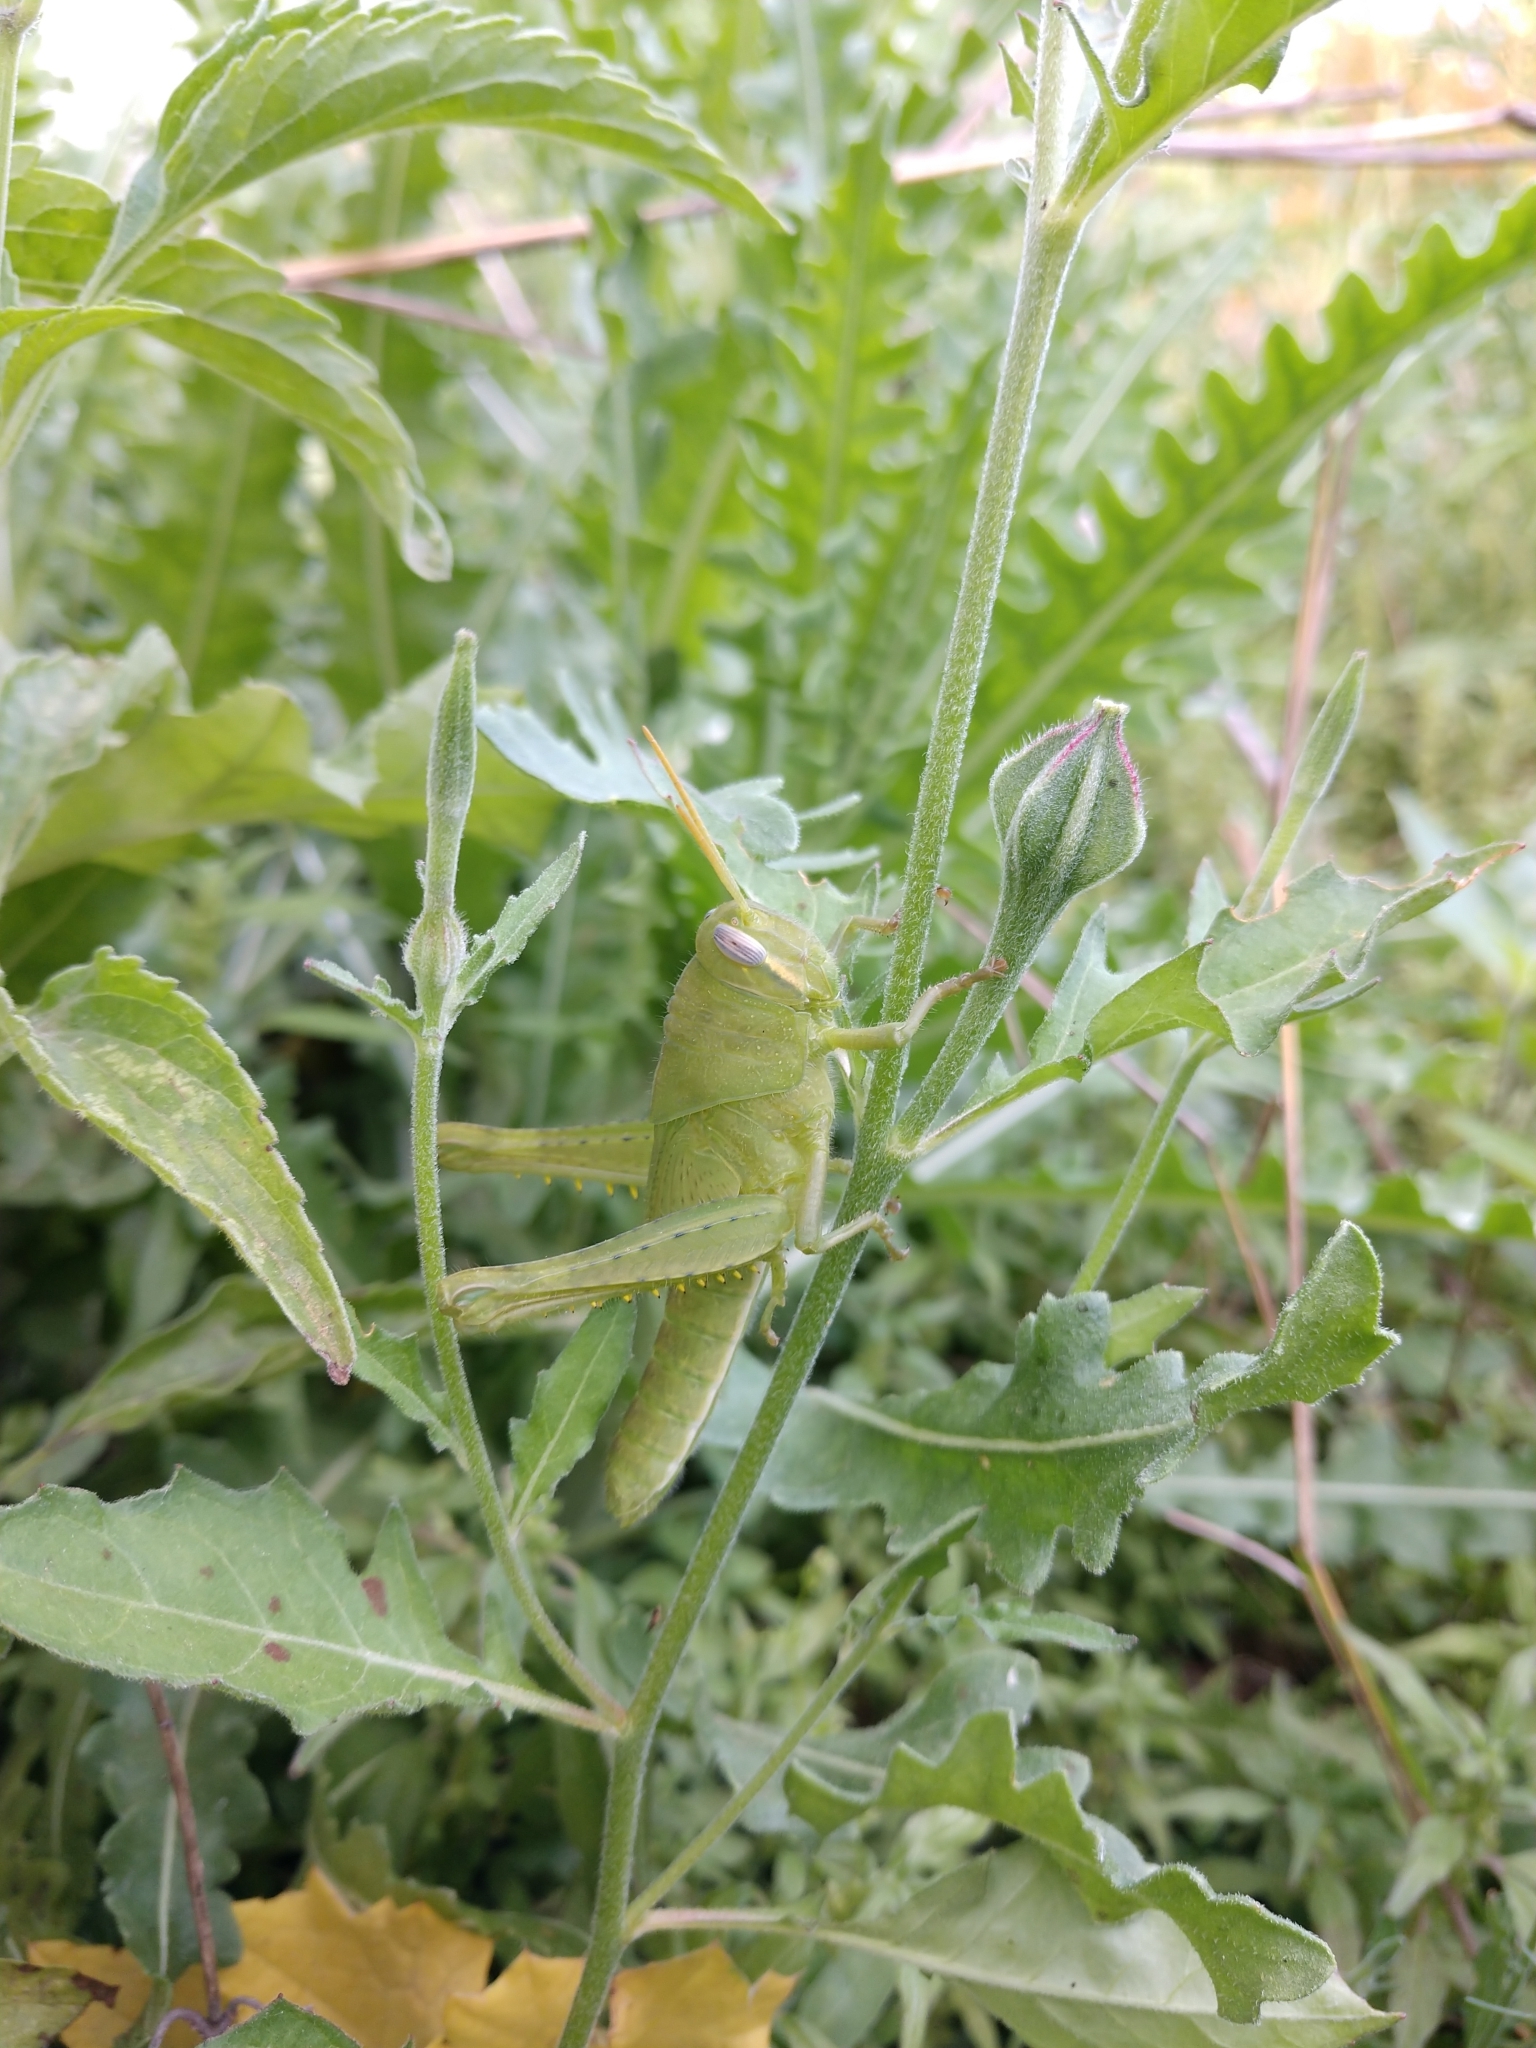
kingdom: Animalia
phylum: Arthropoda
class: Insecta
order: Orthoptera
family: Acrididae
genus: Schistocerca
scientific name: Schistocerca nitens
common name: Vagrant grasshopper
